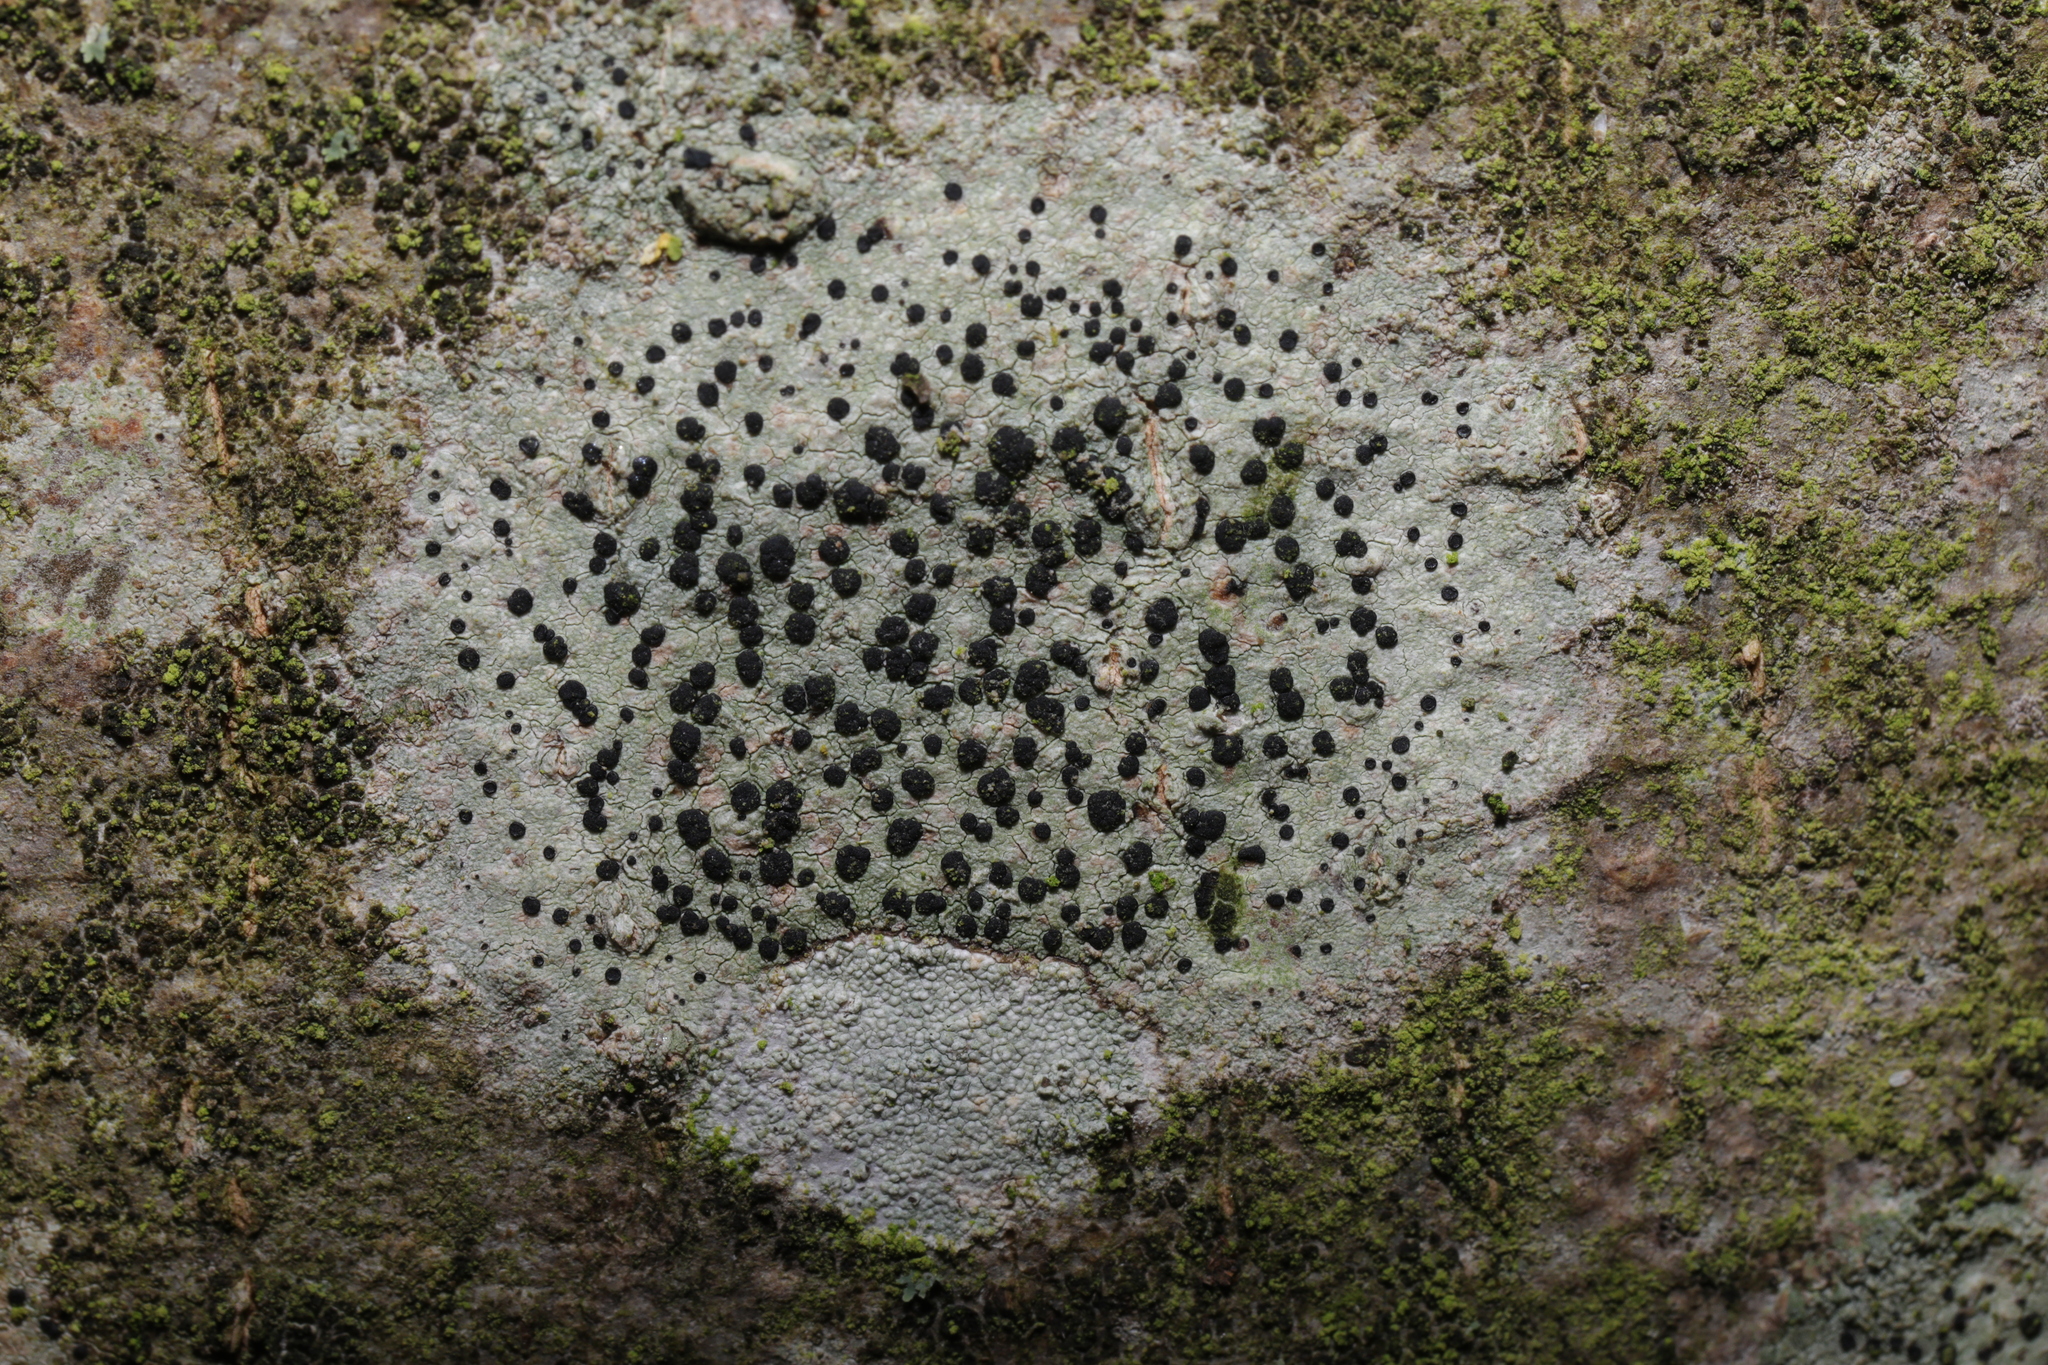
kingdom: Fungi
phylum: Ascomycota
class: Lecanoromycetes
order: Lecanorales
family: Lecanoraceae
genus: Lecidella
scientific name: Lecidella elaeochroma
